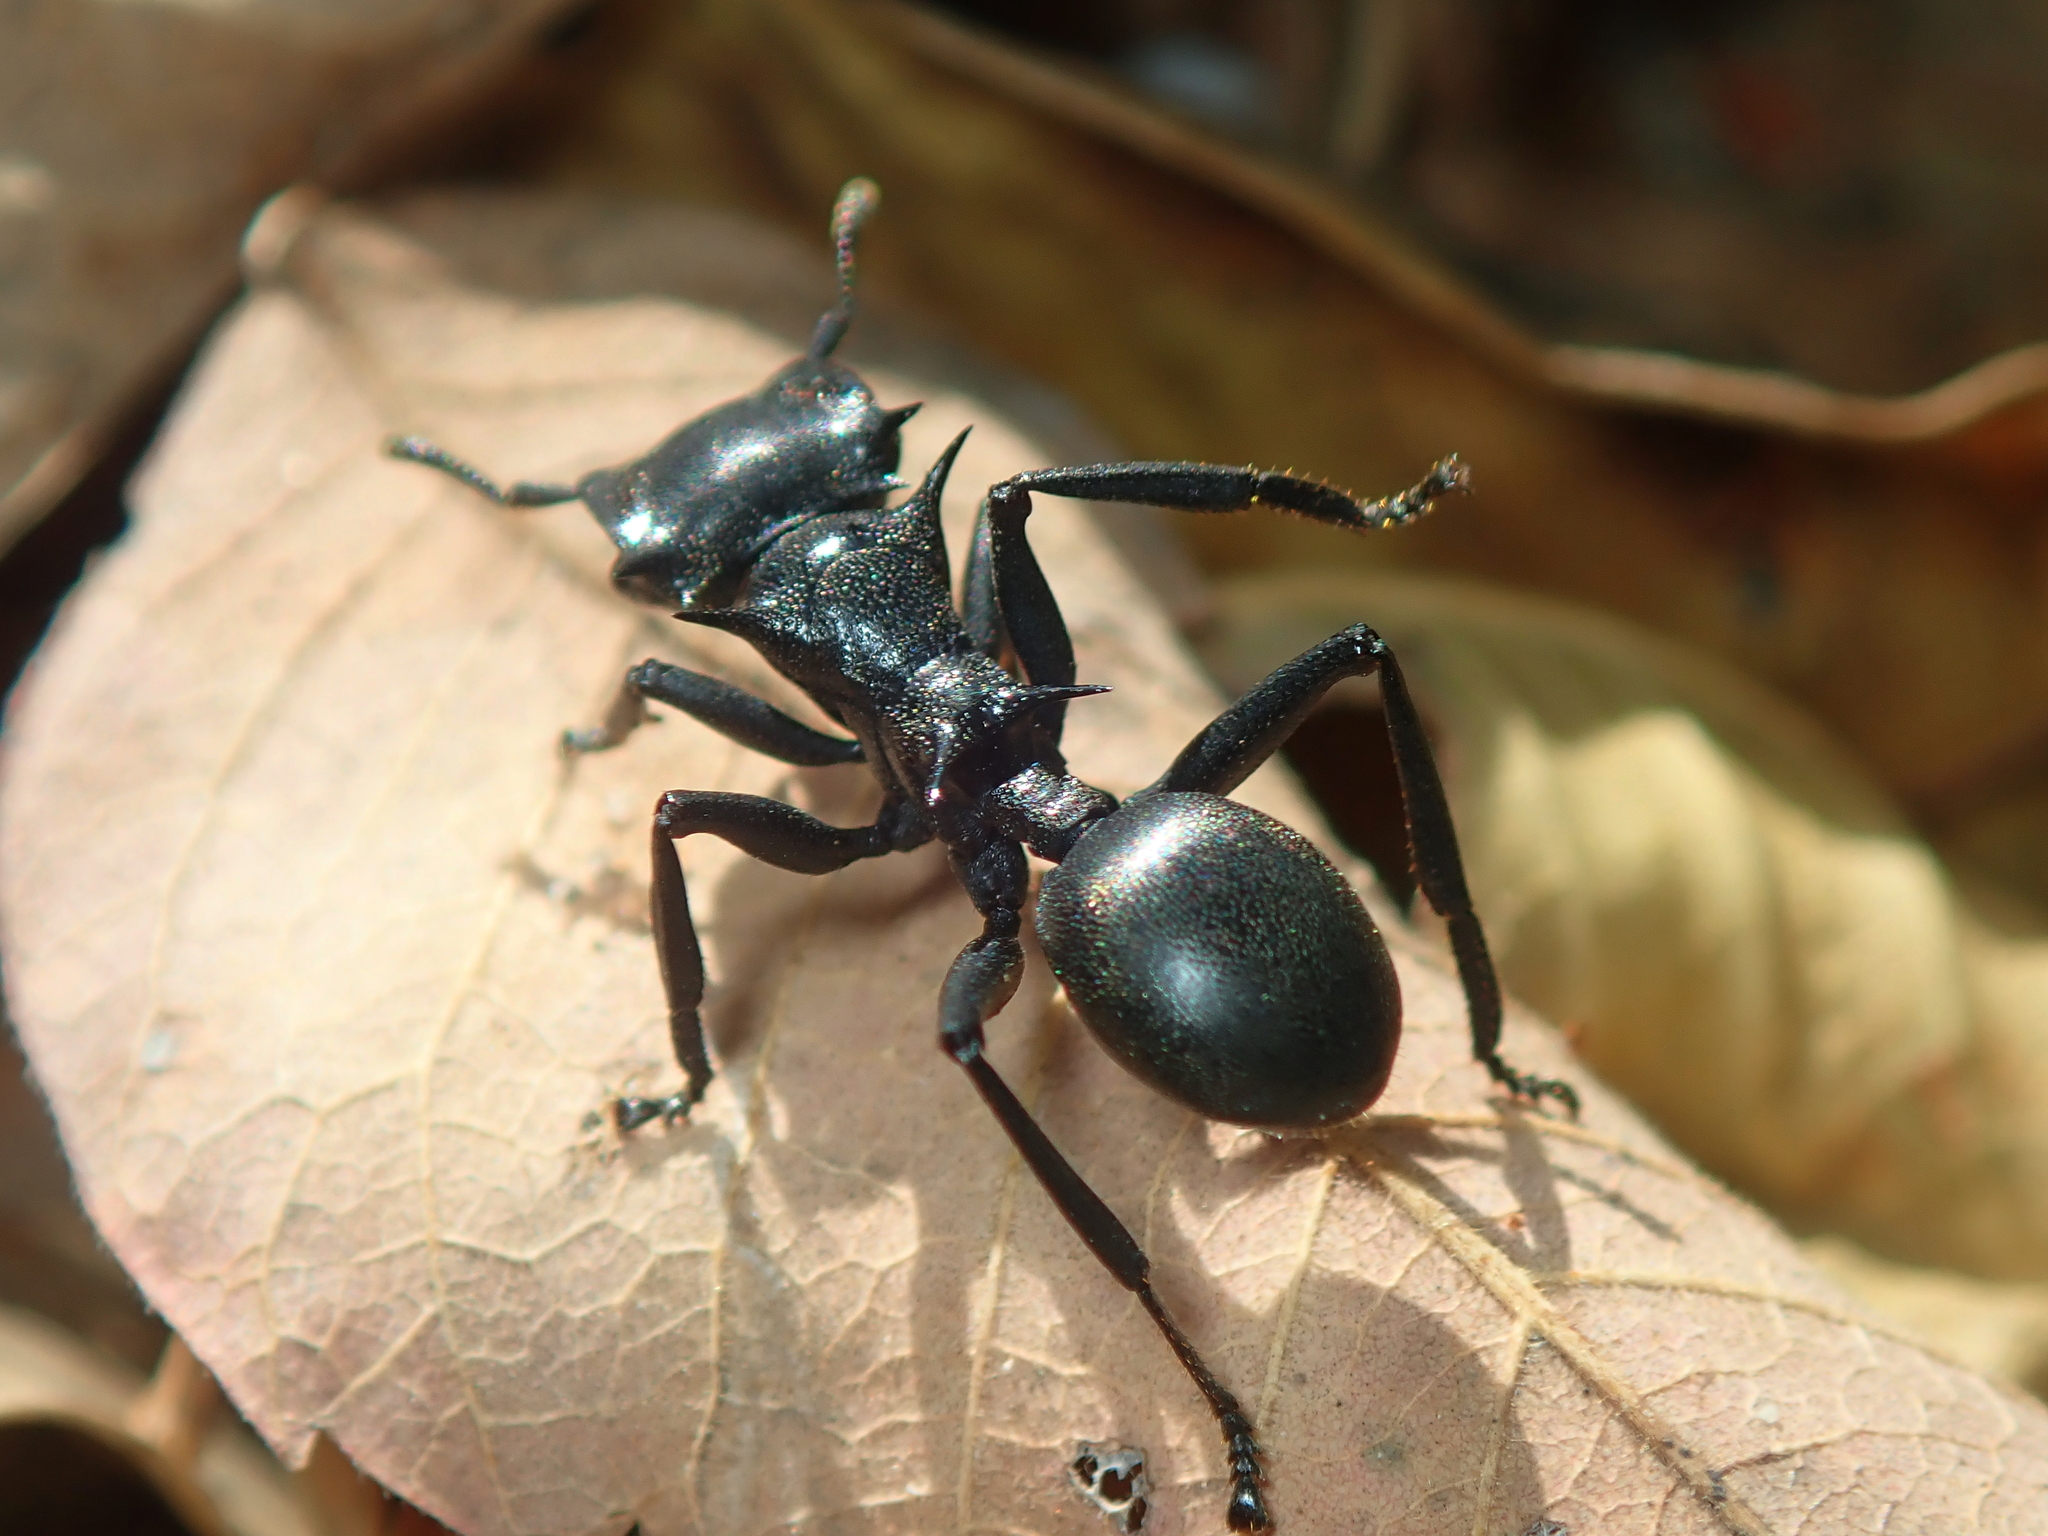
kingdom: Animalia
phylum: Arthropoda
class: Insecta
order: Hymenoptera
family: Formicidae
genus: Cephalotes
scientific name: Cephalotes atratus
